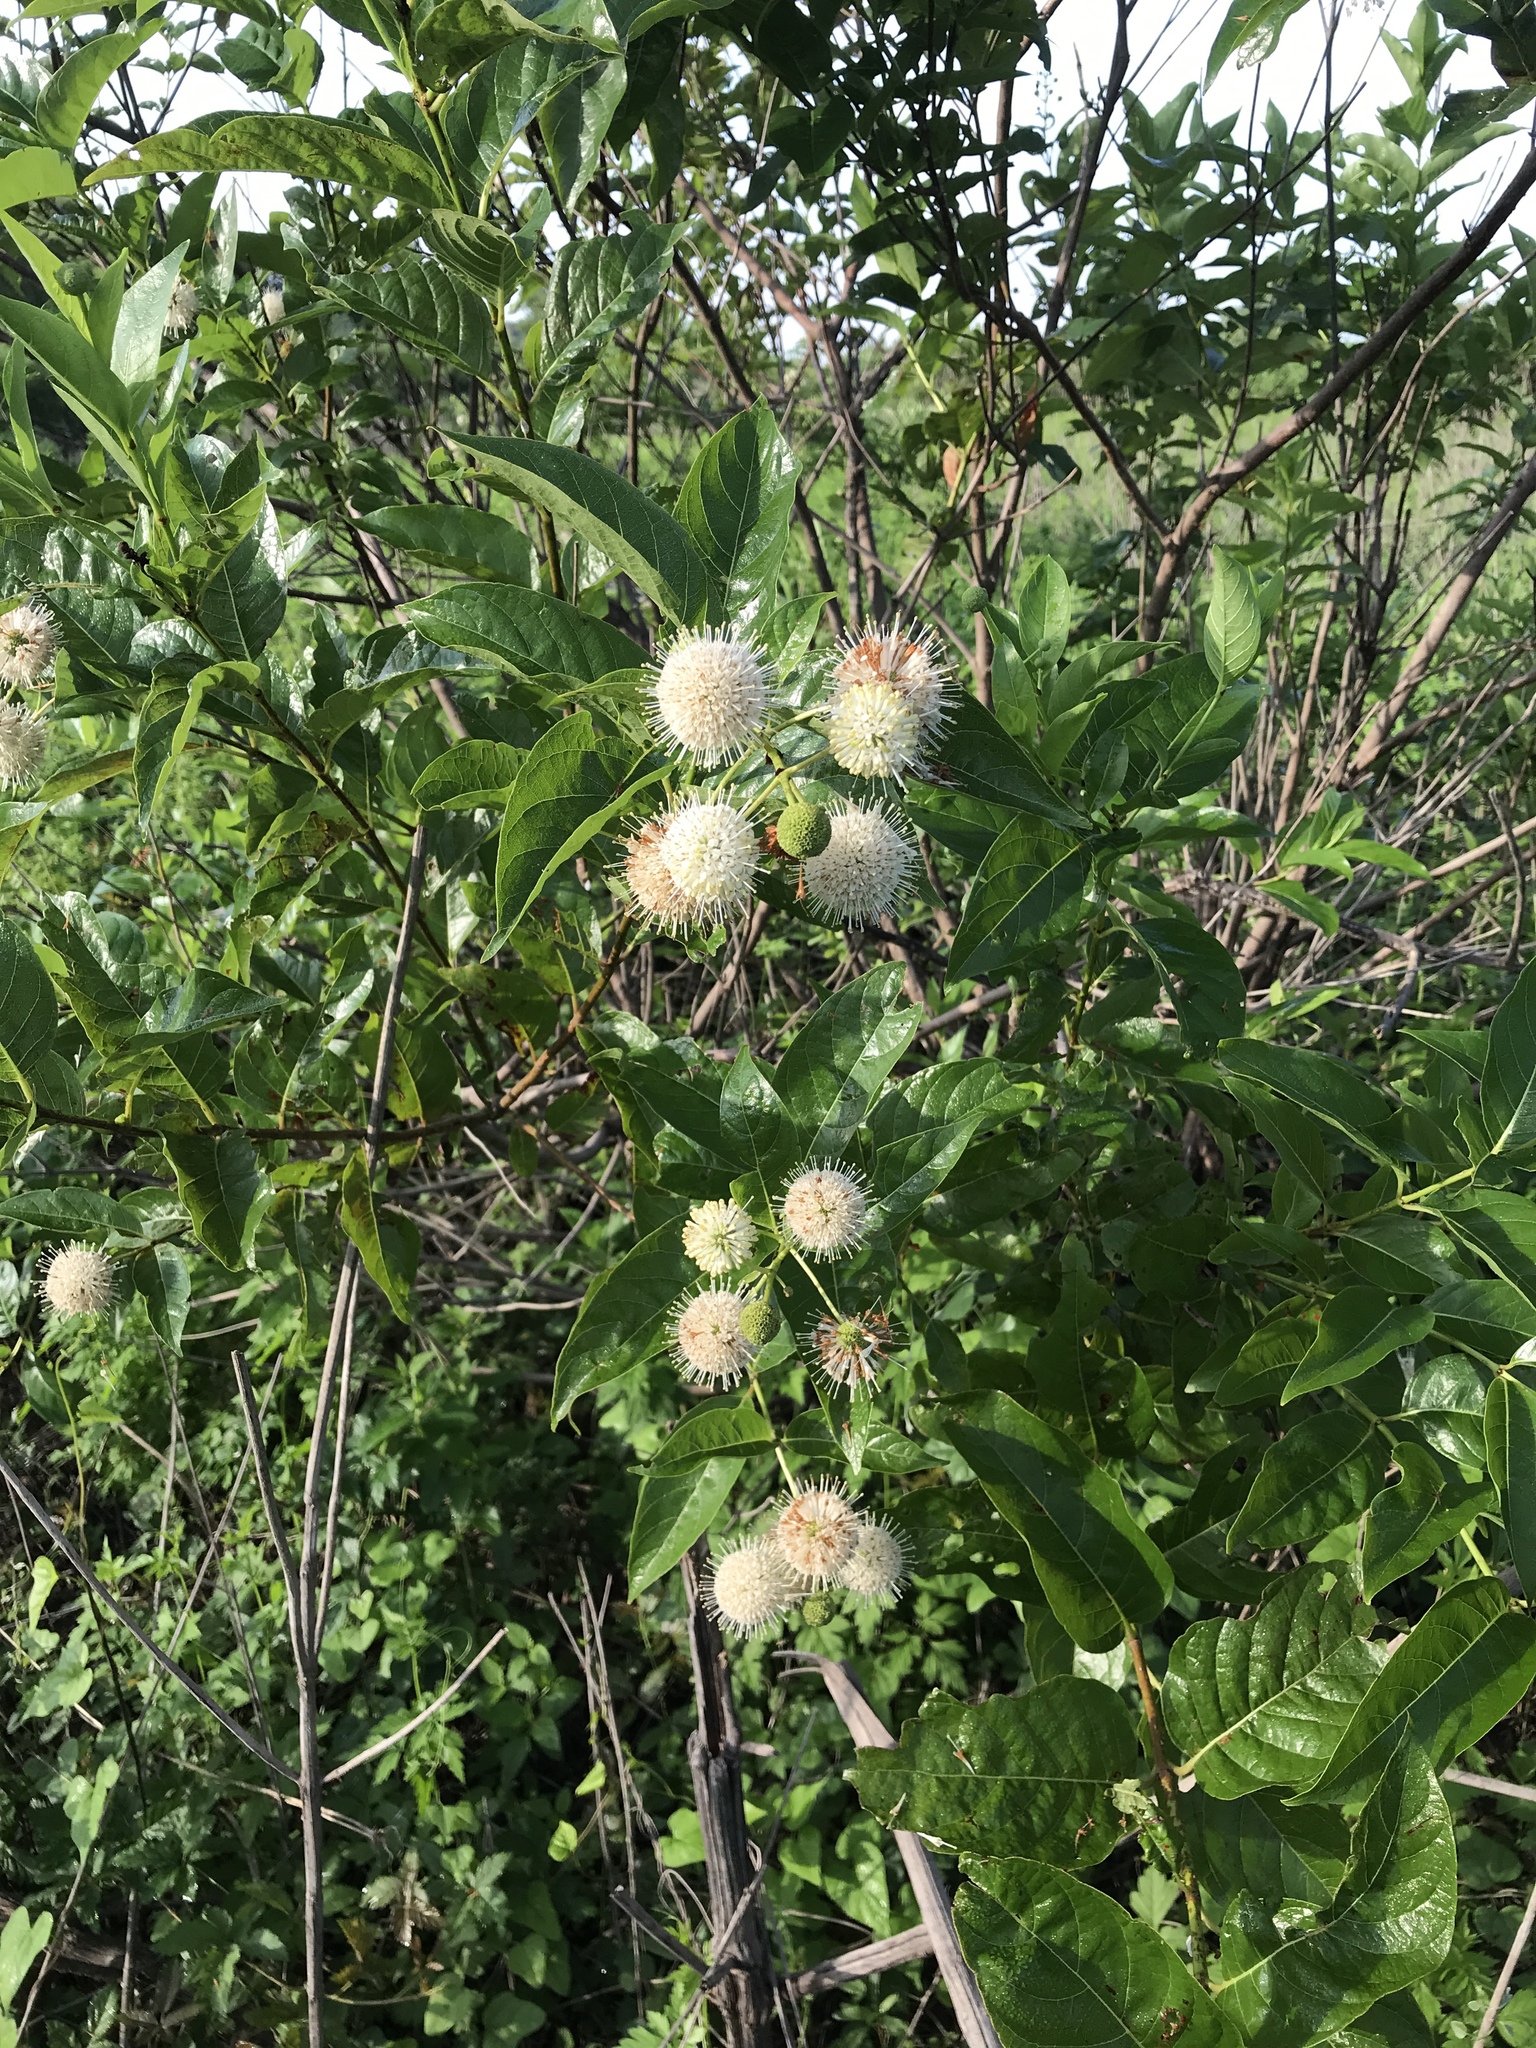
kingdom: Plantae
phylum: Tracheophyta
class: Magnoliopsida
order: Gentianales
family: Rubiaceae
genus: Cephalanthus
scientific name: Cephalanthus occidentalis
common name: Button-willow
